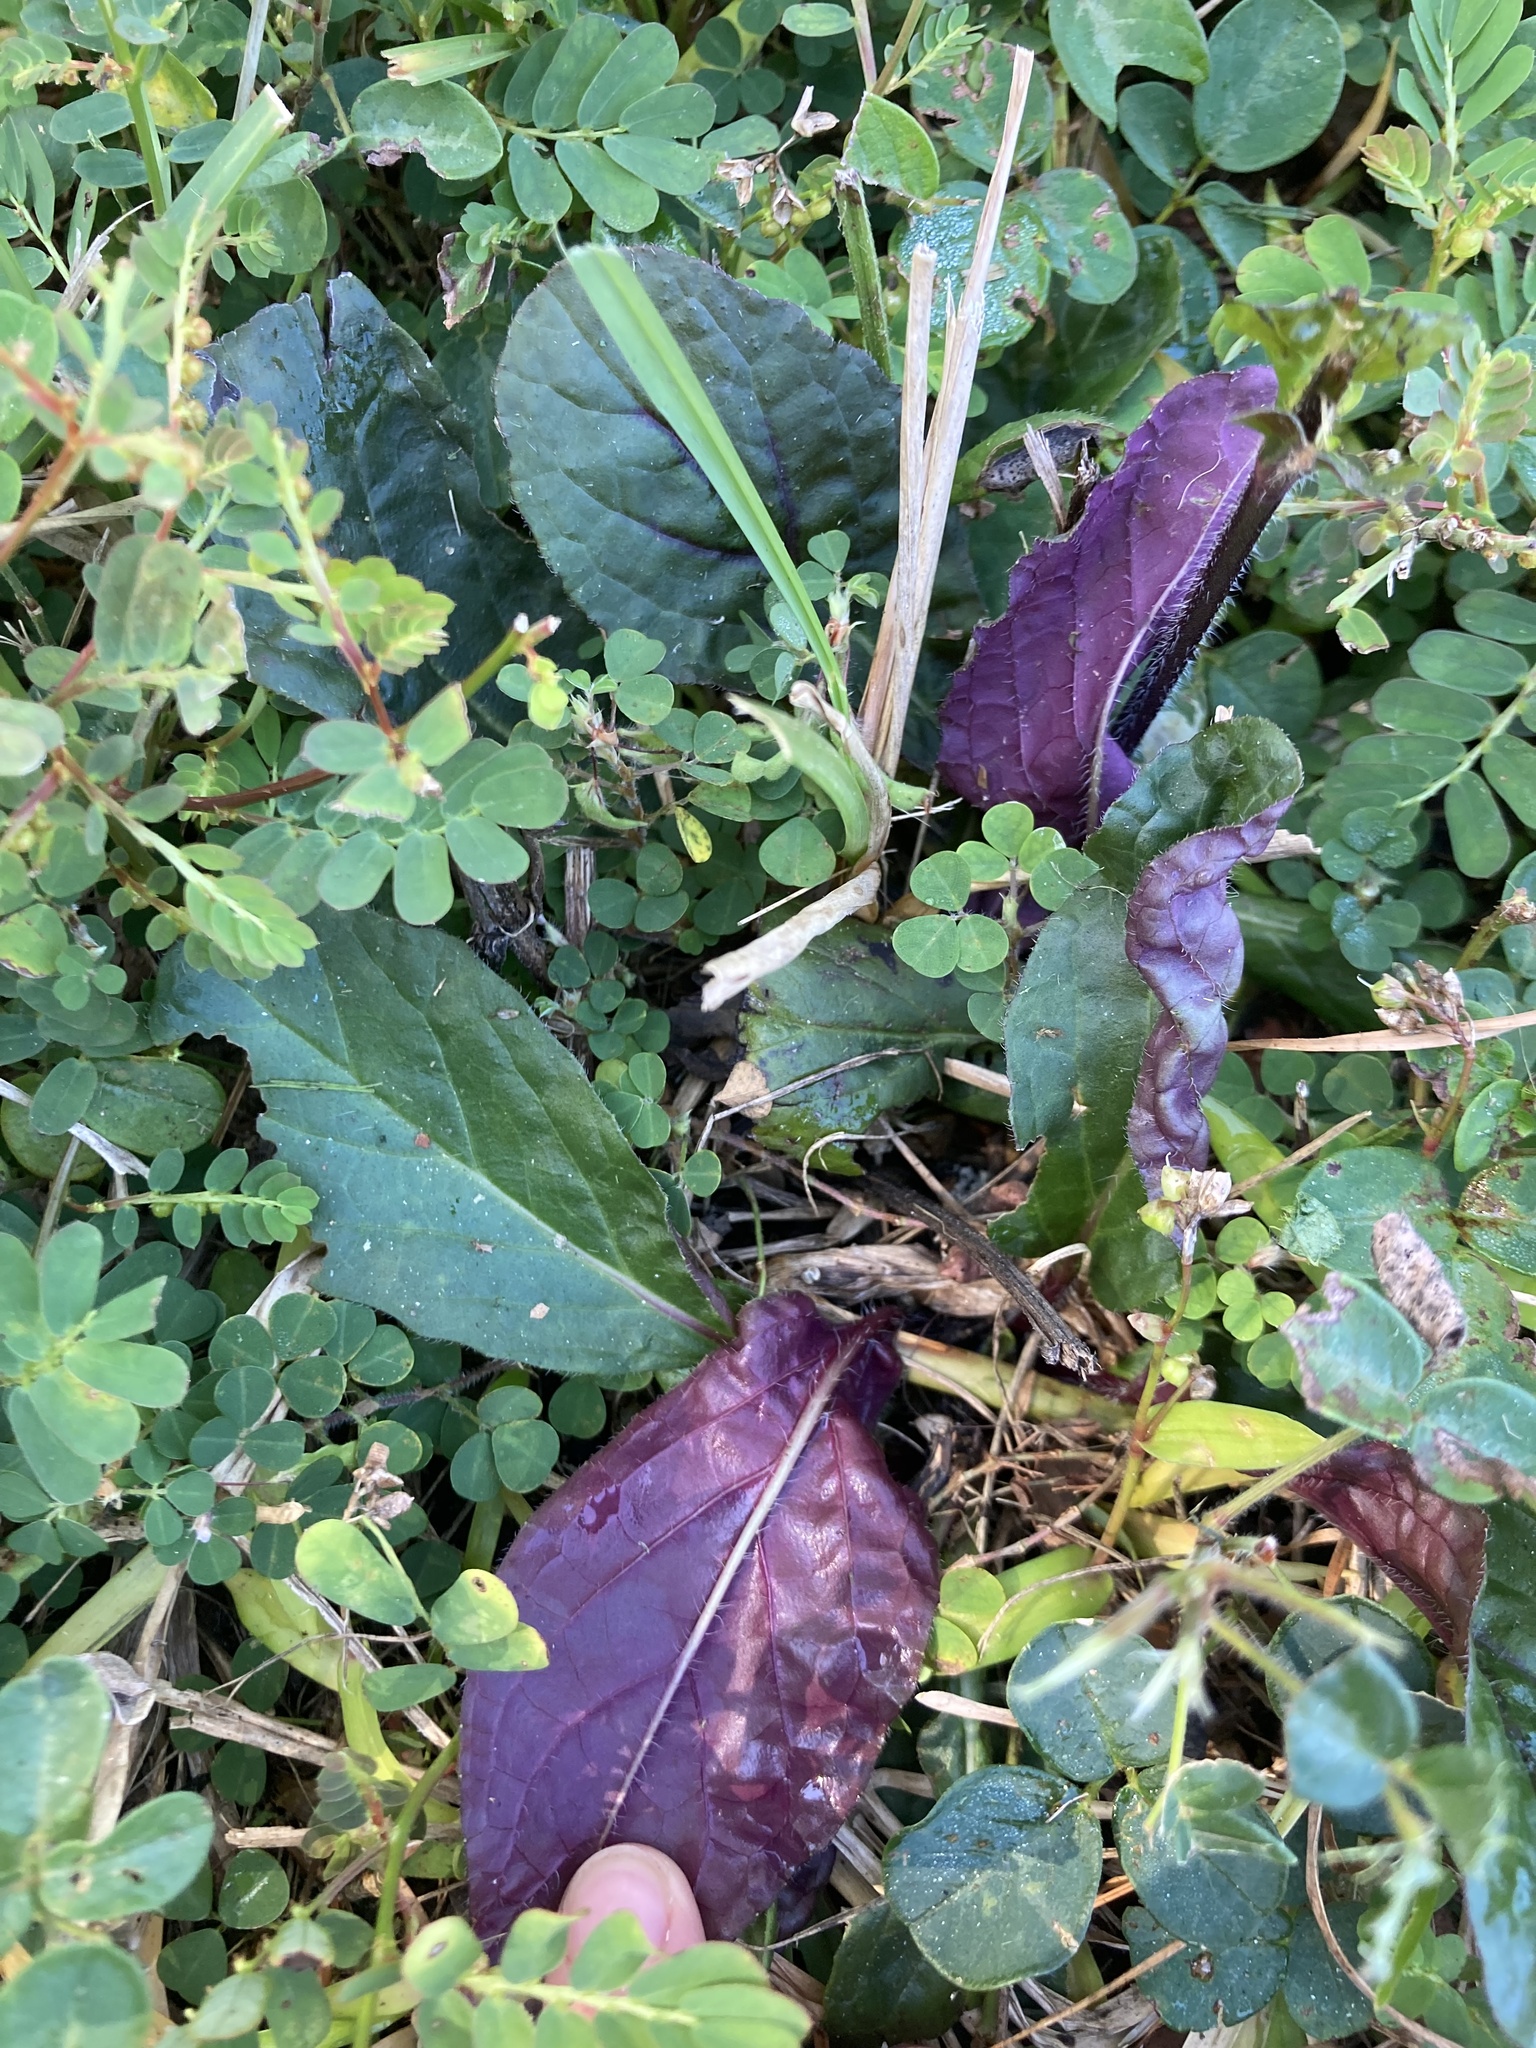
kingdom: Plantae
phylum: Tracheophyta
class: Magnoliopsida
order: Lamiales
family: Lamiaceae
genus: Salvia
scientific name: Salvia lyrata
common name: Cancerweed
